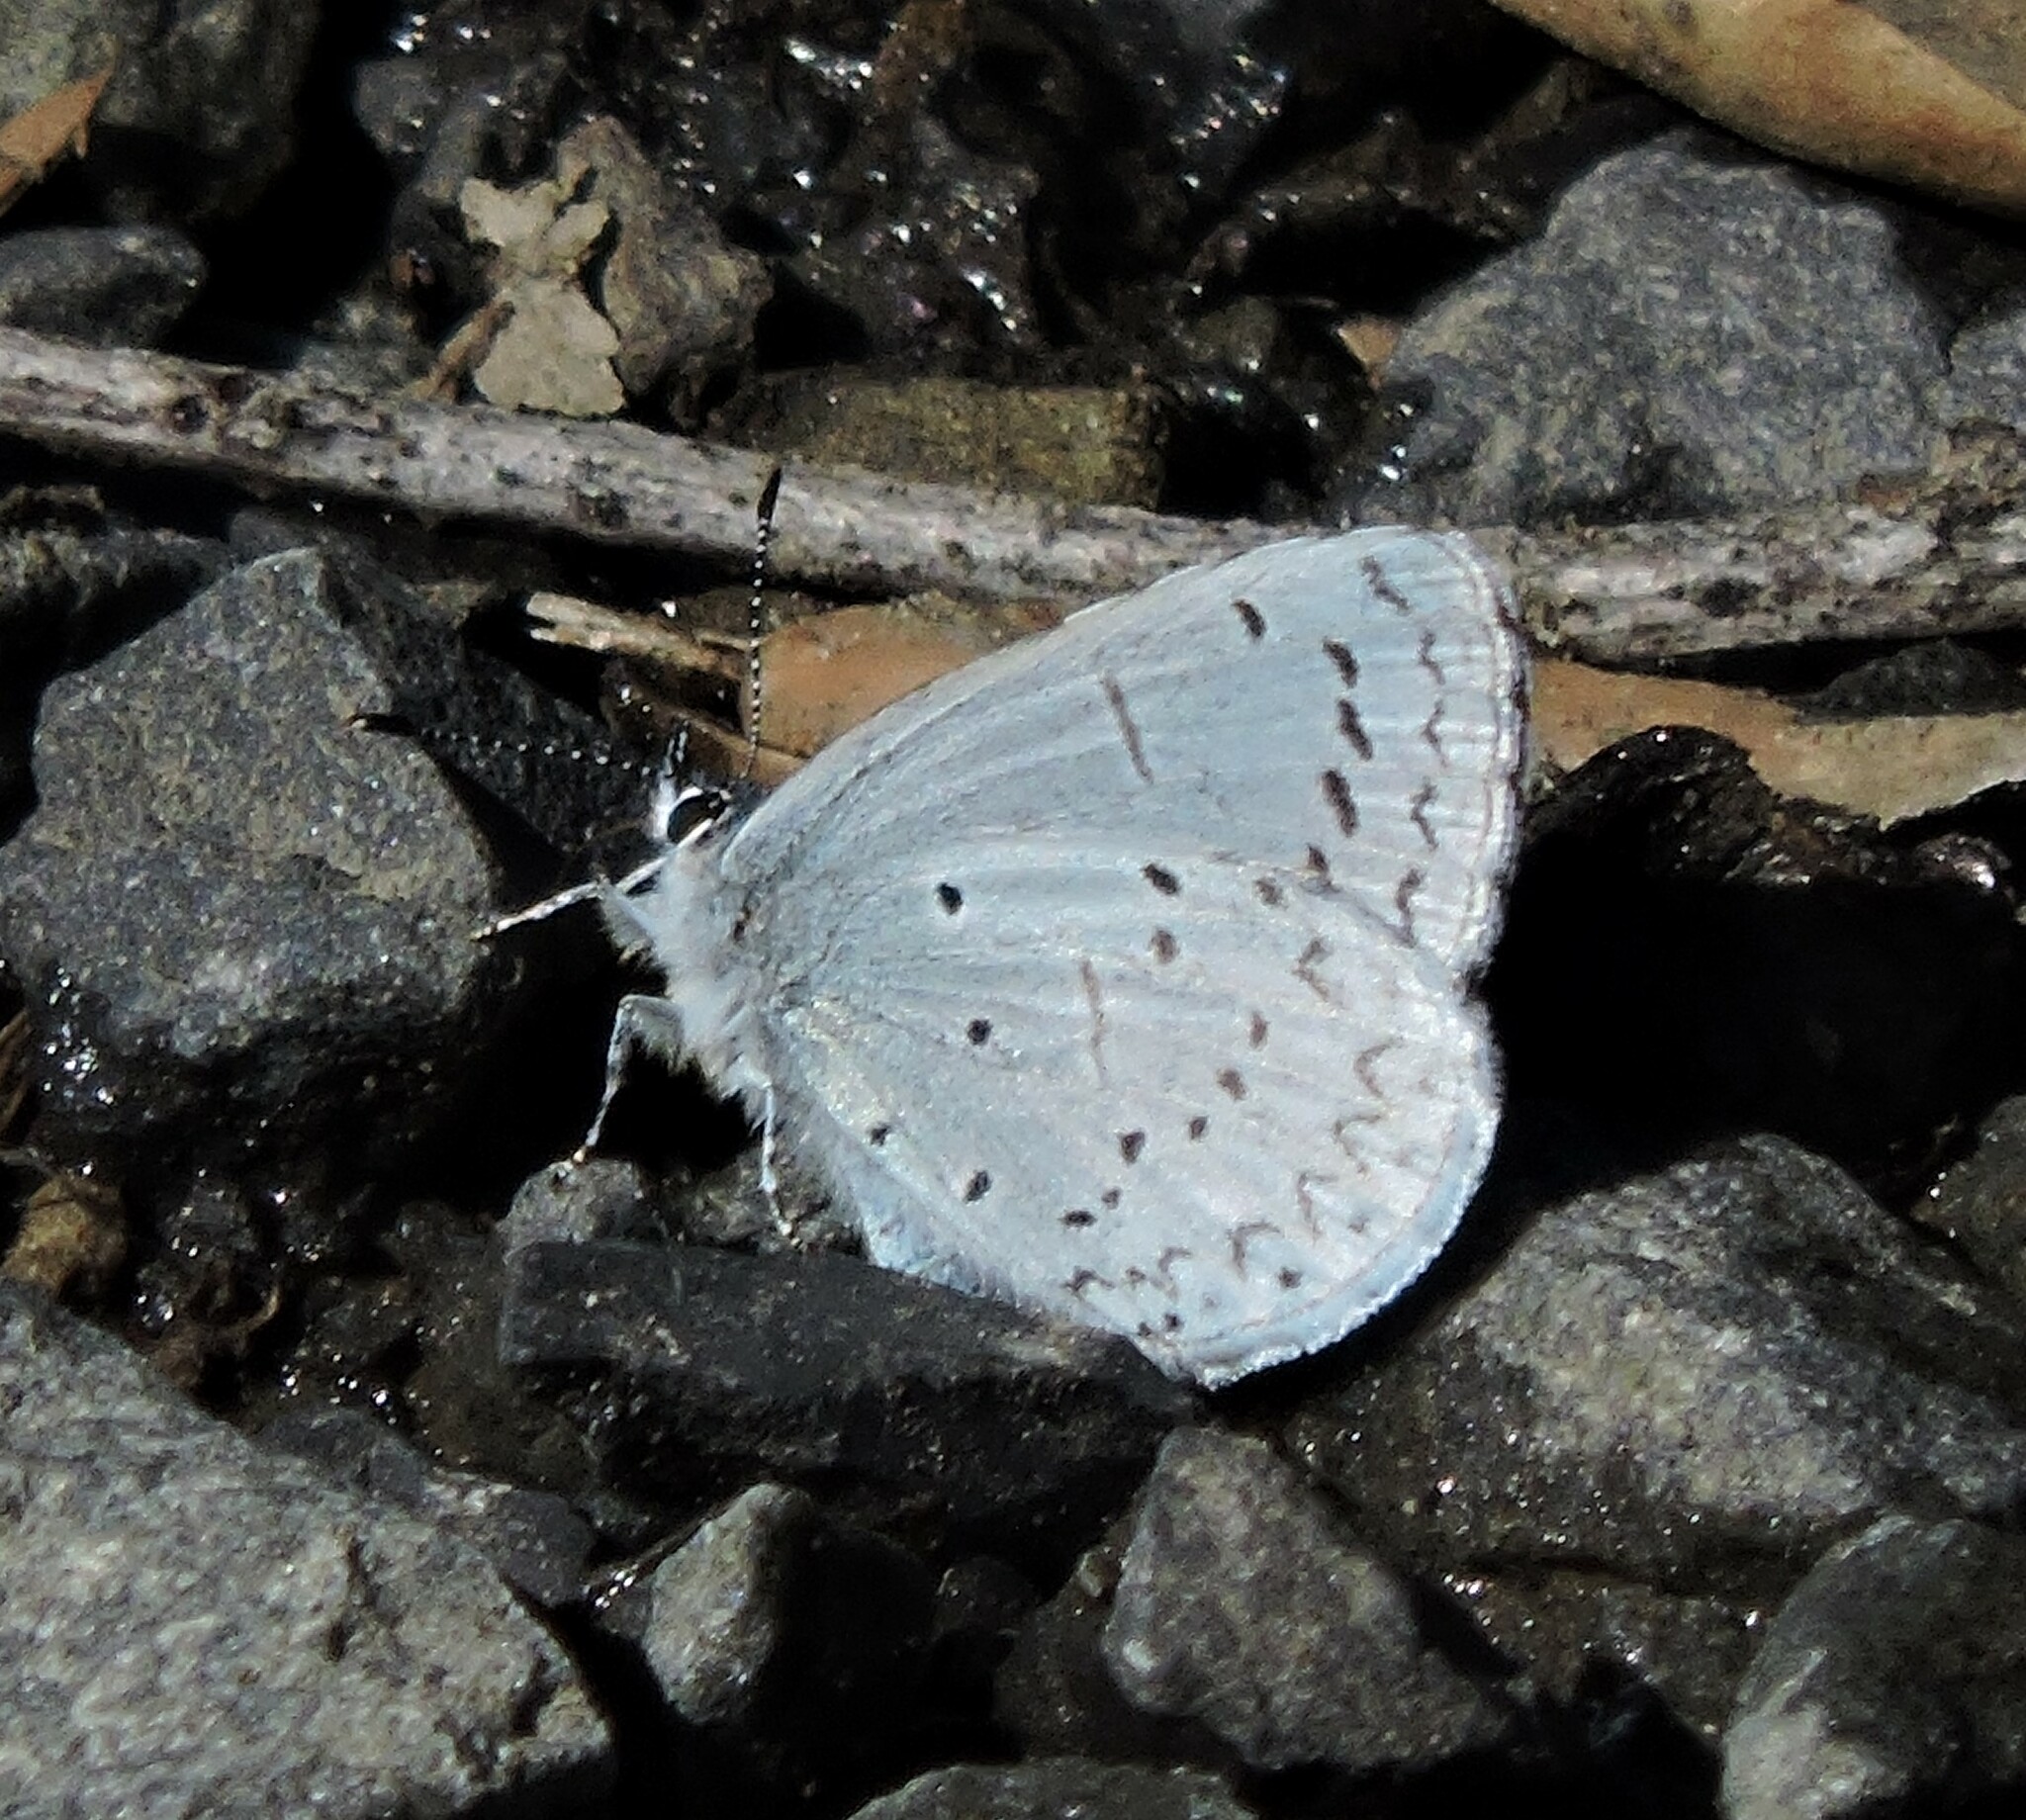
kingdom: Animalia
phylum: Arthropoda
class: Insecta
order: Lepidoptera
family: Lycaenidae
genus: Celastrina
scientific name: Celastrina ladon
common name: Spring azure
